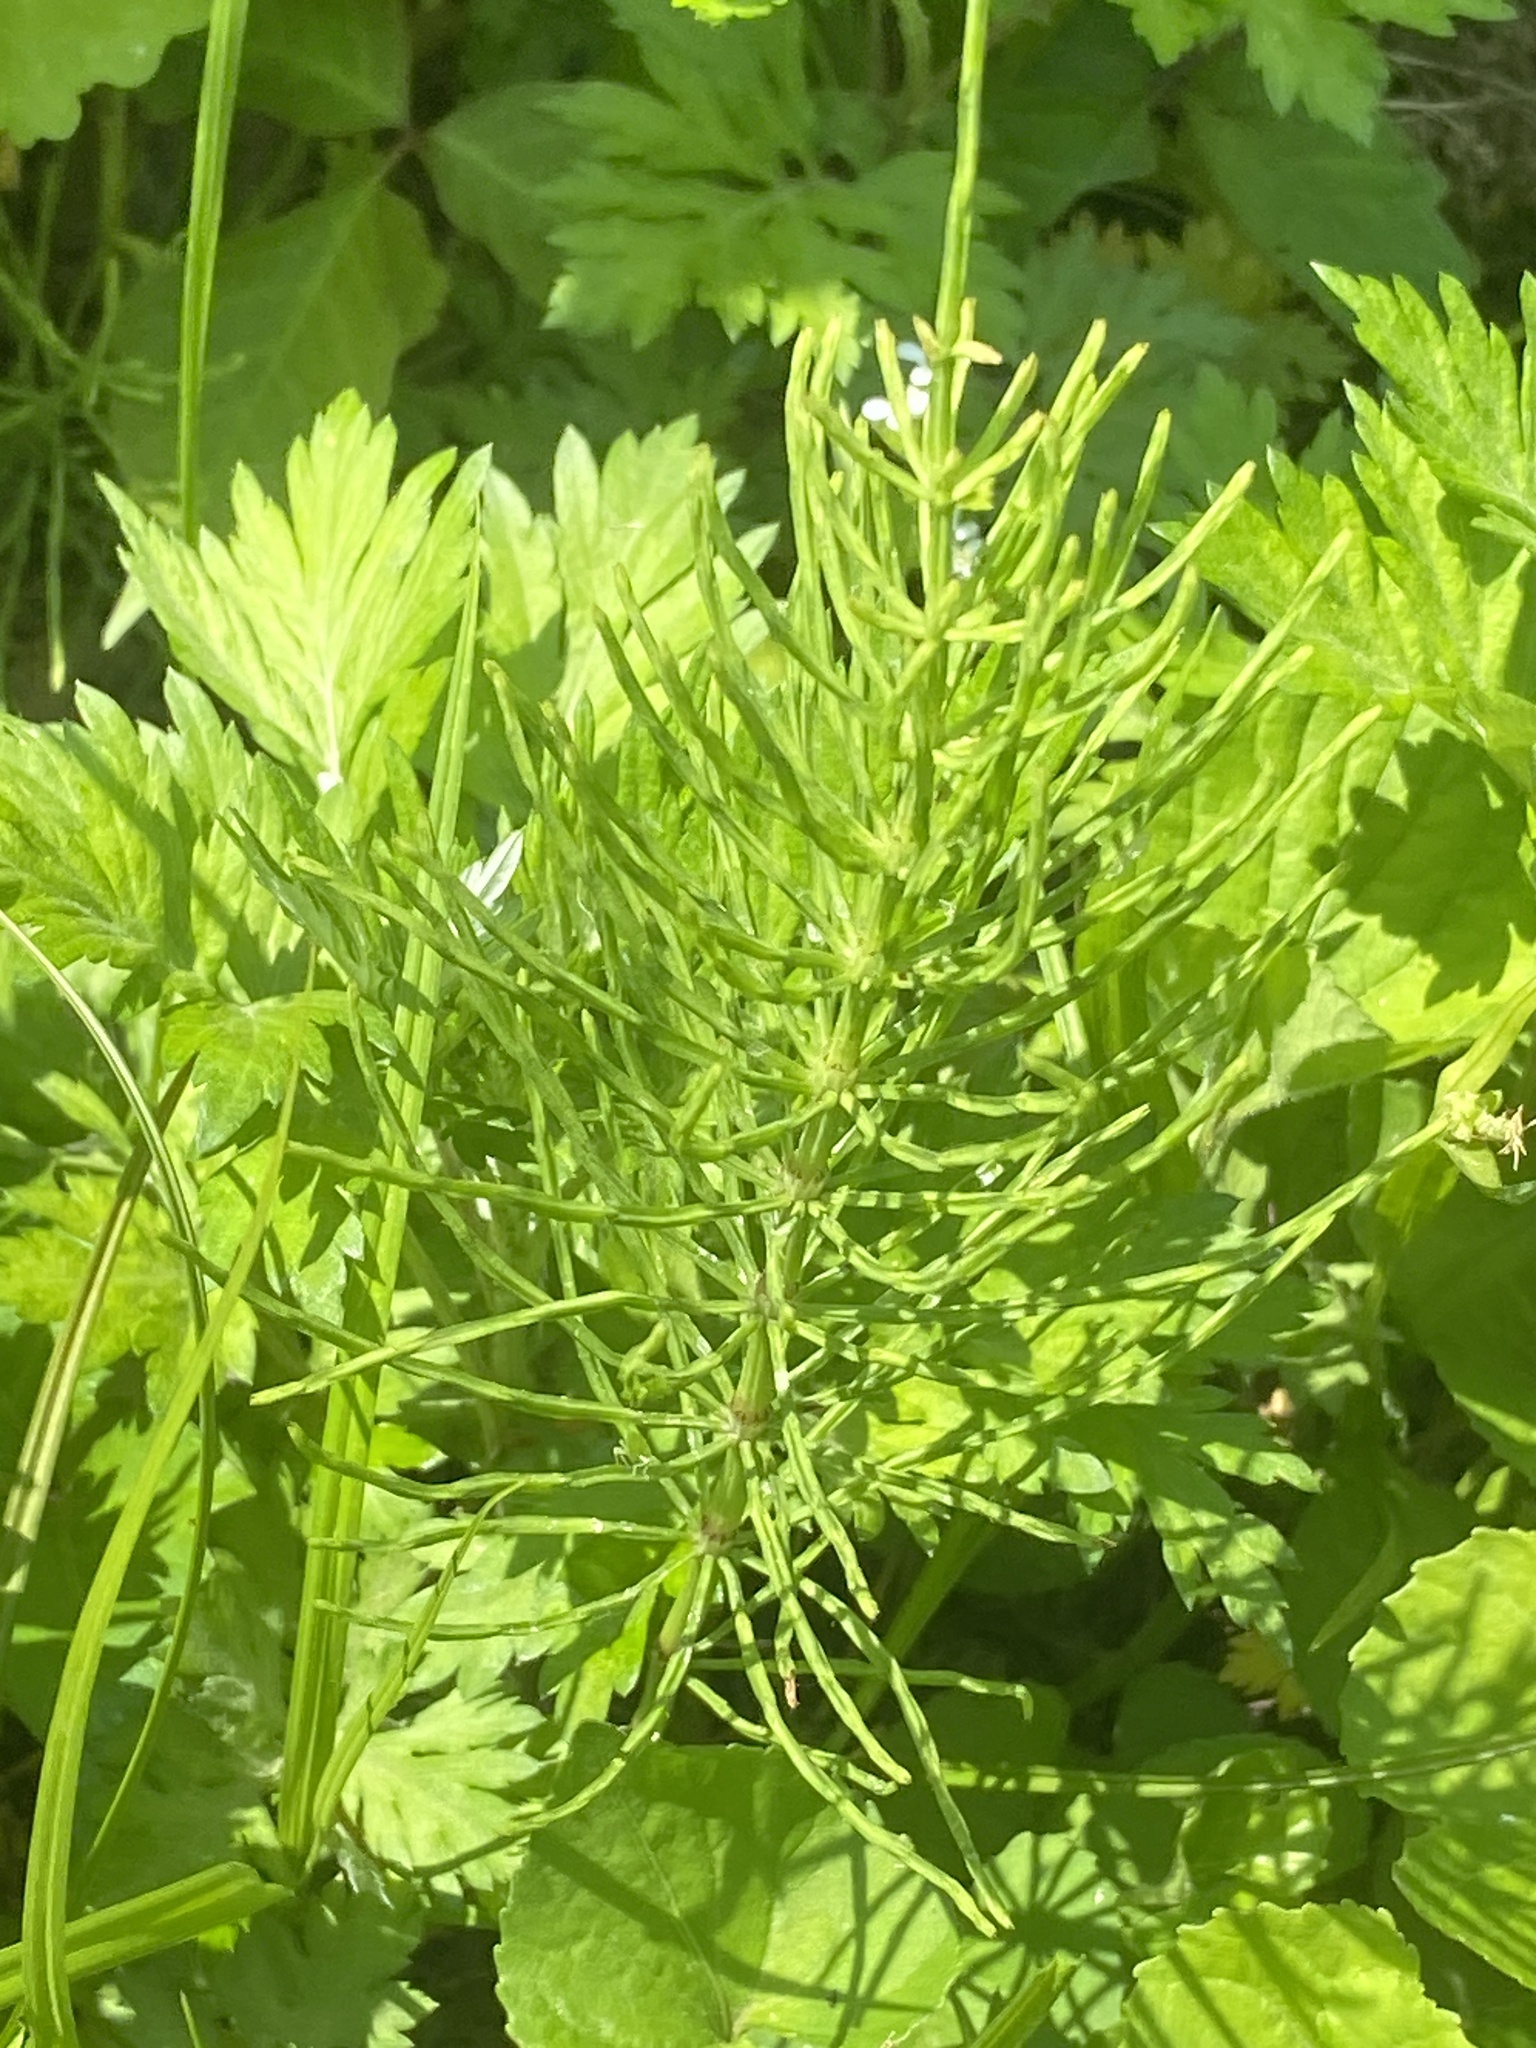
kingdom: Plantae
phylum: Tracheophyta
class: Polypodiopsida
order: Equisetales
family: Equisetaceae
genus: Equisetum
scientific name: Equisetum arvense
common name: Field horsetail
